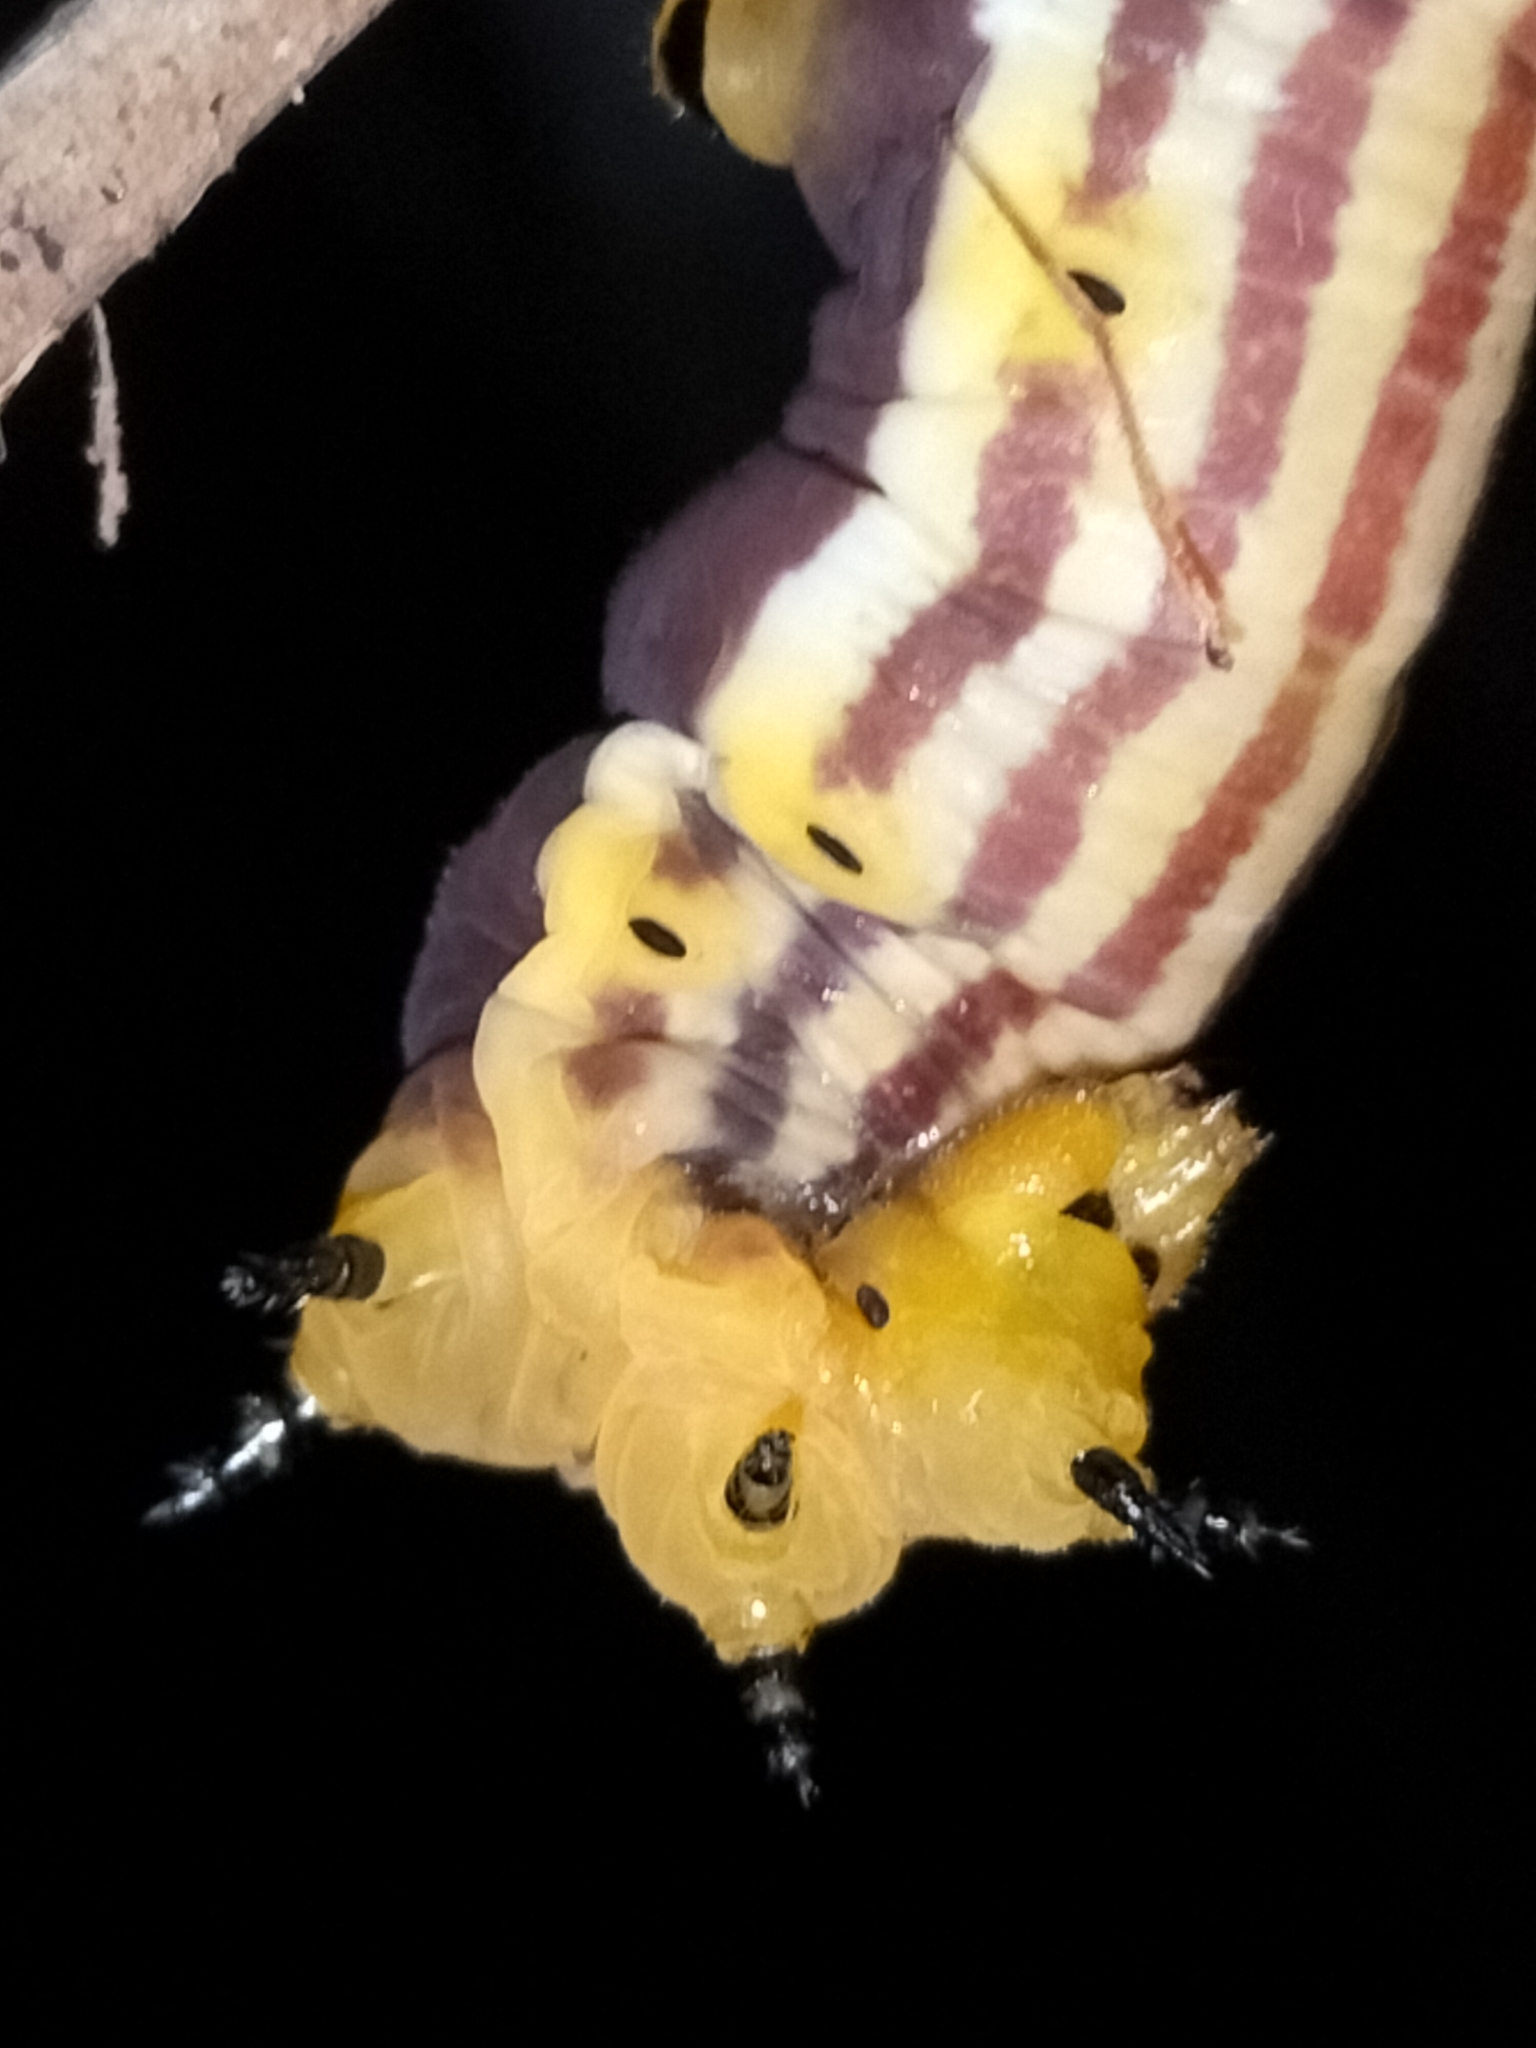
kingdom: Animalia
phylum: Arthropoda
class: Insecta
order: Lepidoptera
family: Sphingidae
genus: Macroglossum
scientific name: Macroglossum tenebrosa
